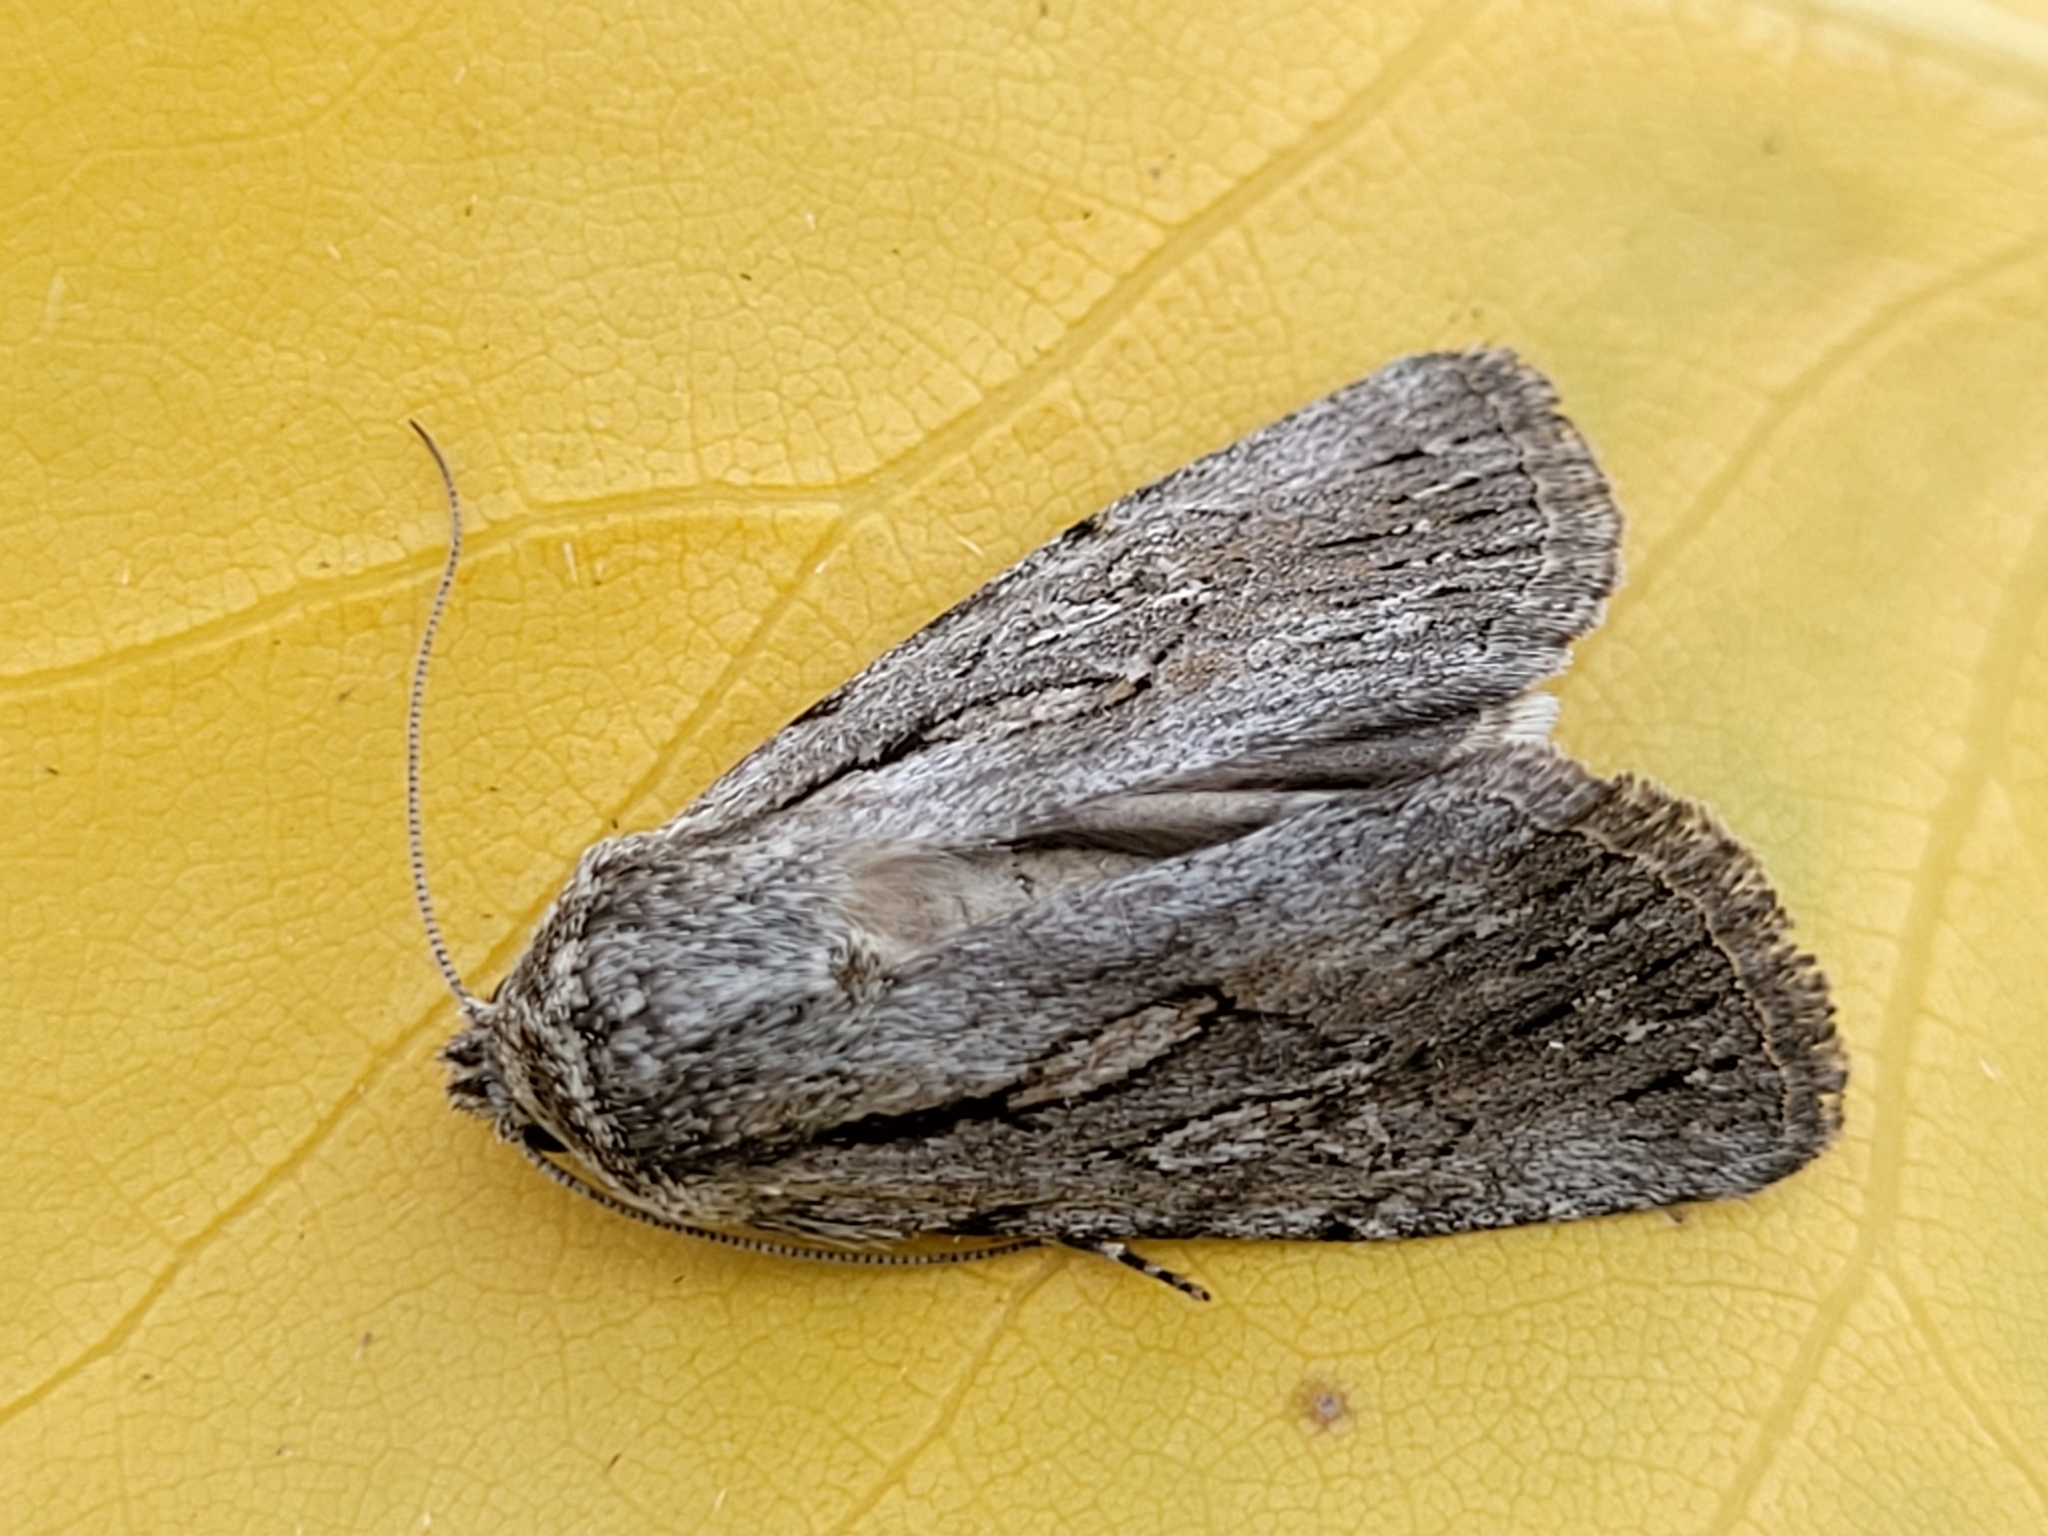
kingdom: Animalia
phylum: Arthropoda
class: Insecta
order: Lepidoptera
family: Noctuidae
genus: Sympistis
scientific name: Sympistis mackiei
